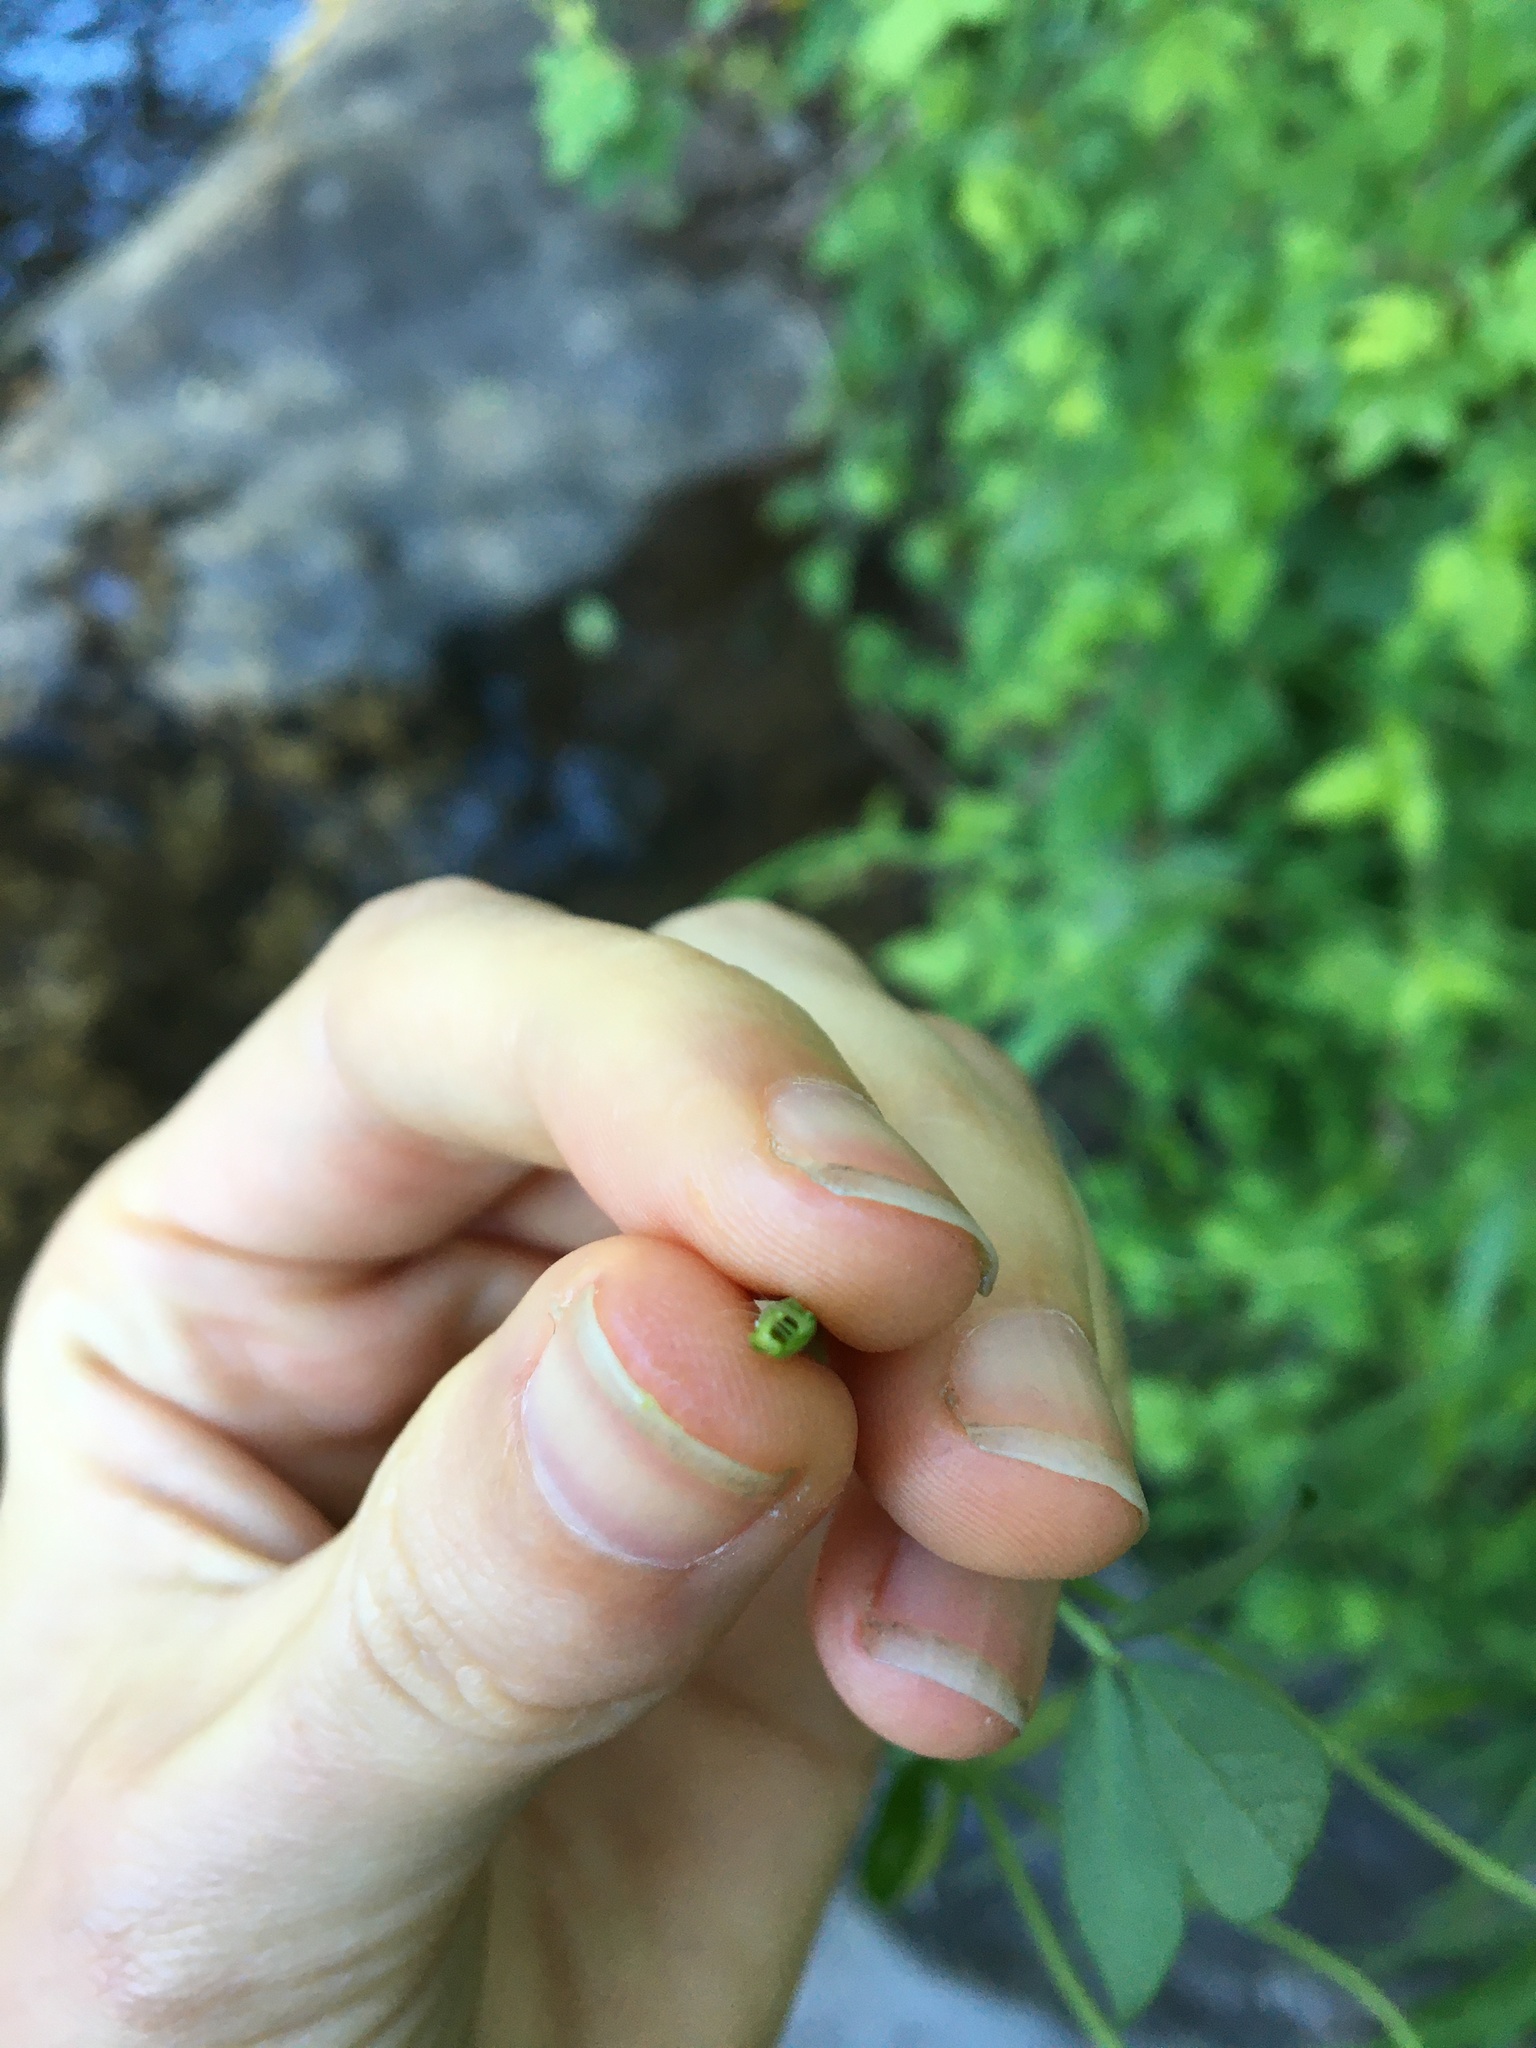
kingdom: Plantae
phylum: Tracheophyta
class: Magnoliopsida
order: Fabales
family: Fabaceae
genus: Lotus
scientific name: Lotus pedunculatus
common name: Greater birdsfoot-trefoil
